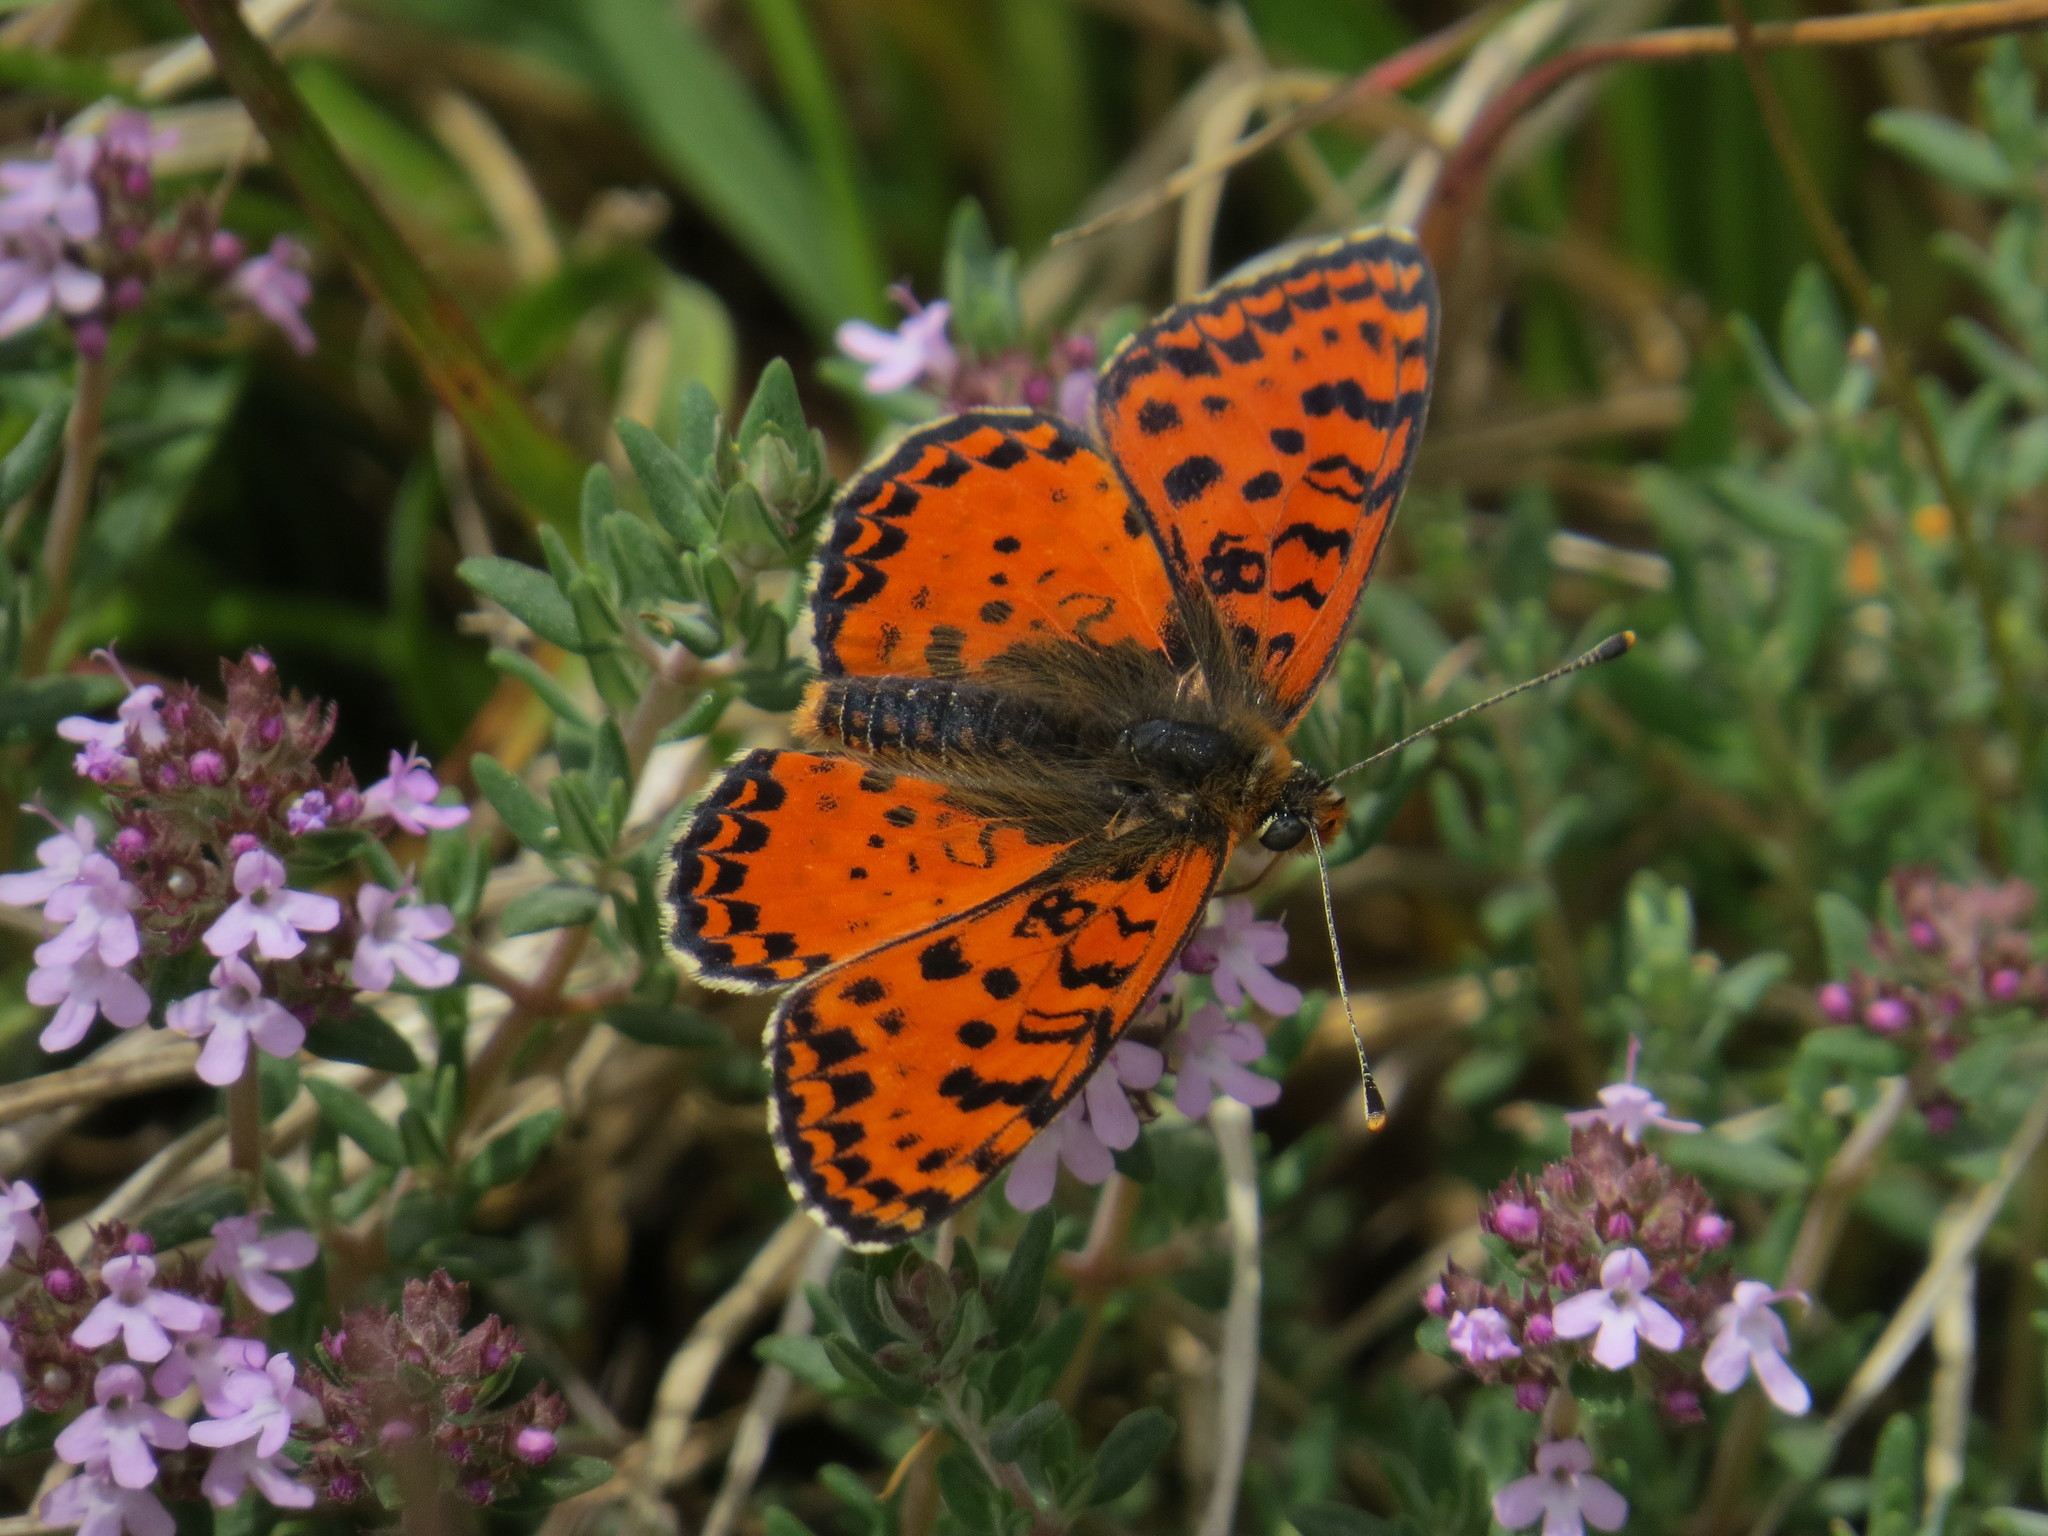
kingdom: Animalia
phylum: Arthropoda
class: Insecta
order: Lepidoptera
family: Nymphalidae
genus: Melitaea
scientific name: Melitaea didyma
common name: Spotted fritillary
